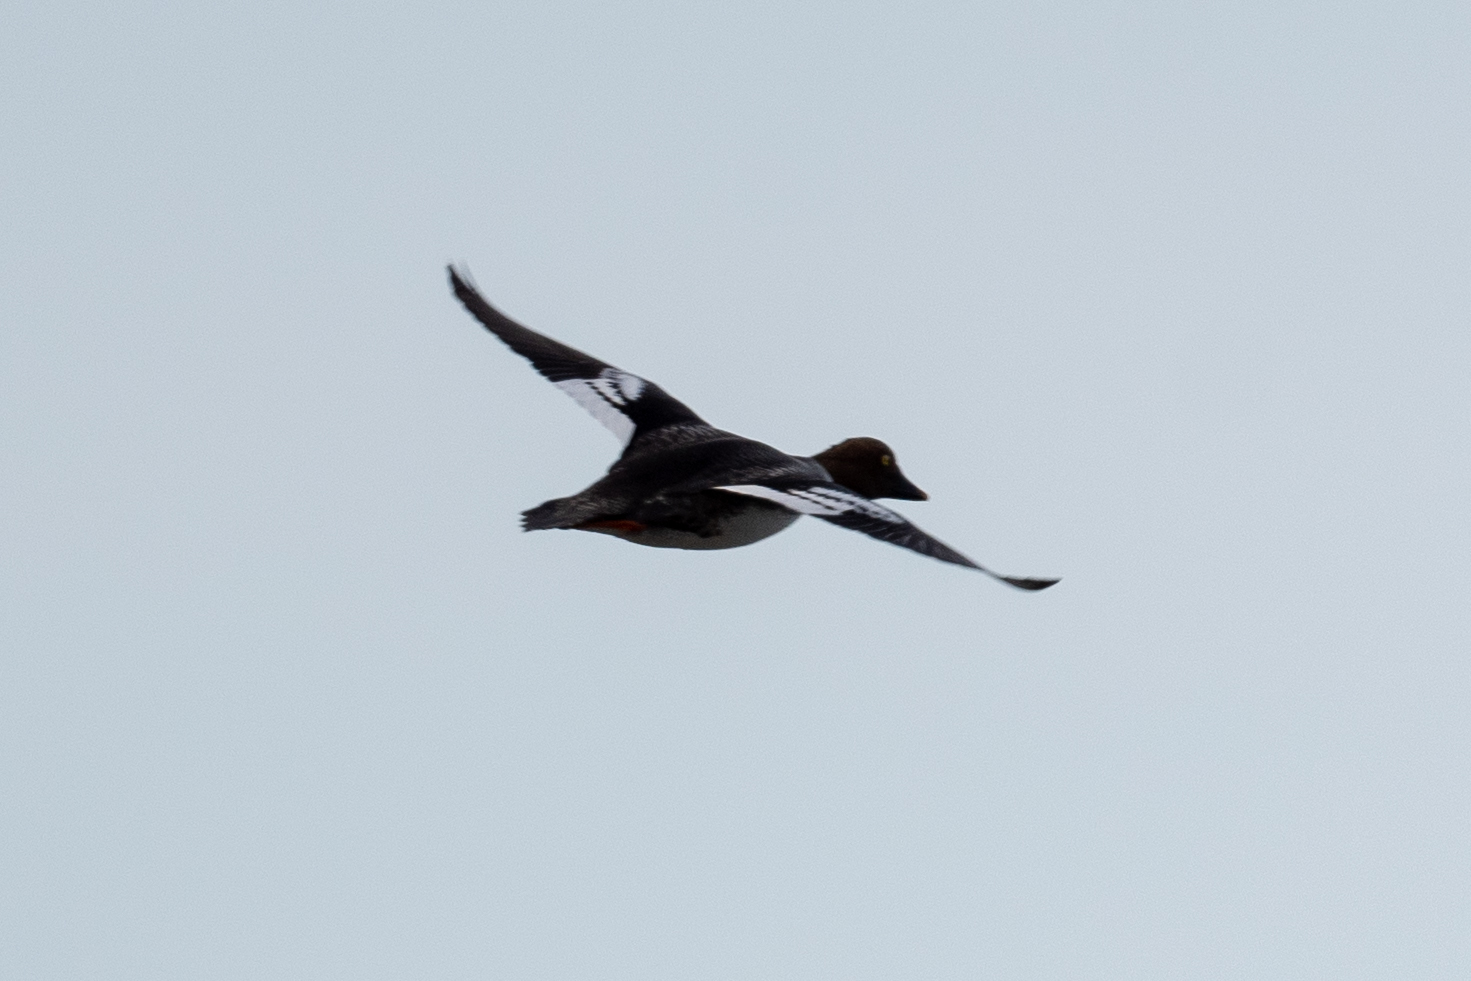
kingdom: Animalia
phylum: Chordata
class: Aves
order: Anseriformes
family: Anatidae
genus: Bucephala
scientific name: Bucephala clangula
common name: Common goldeneye
